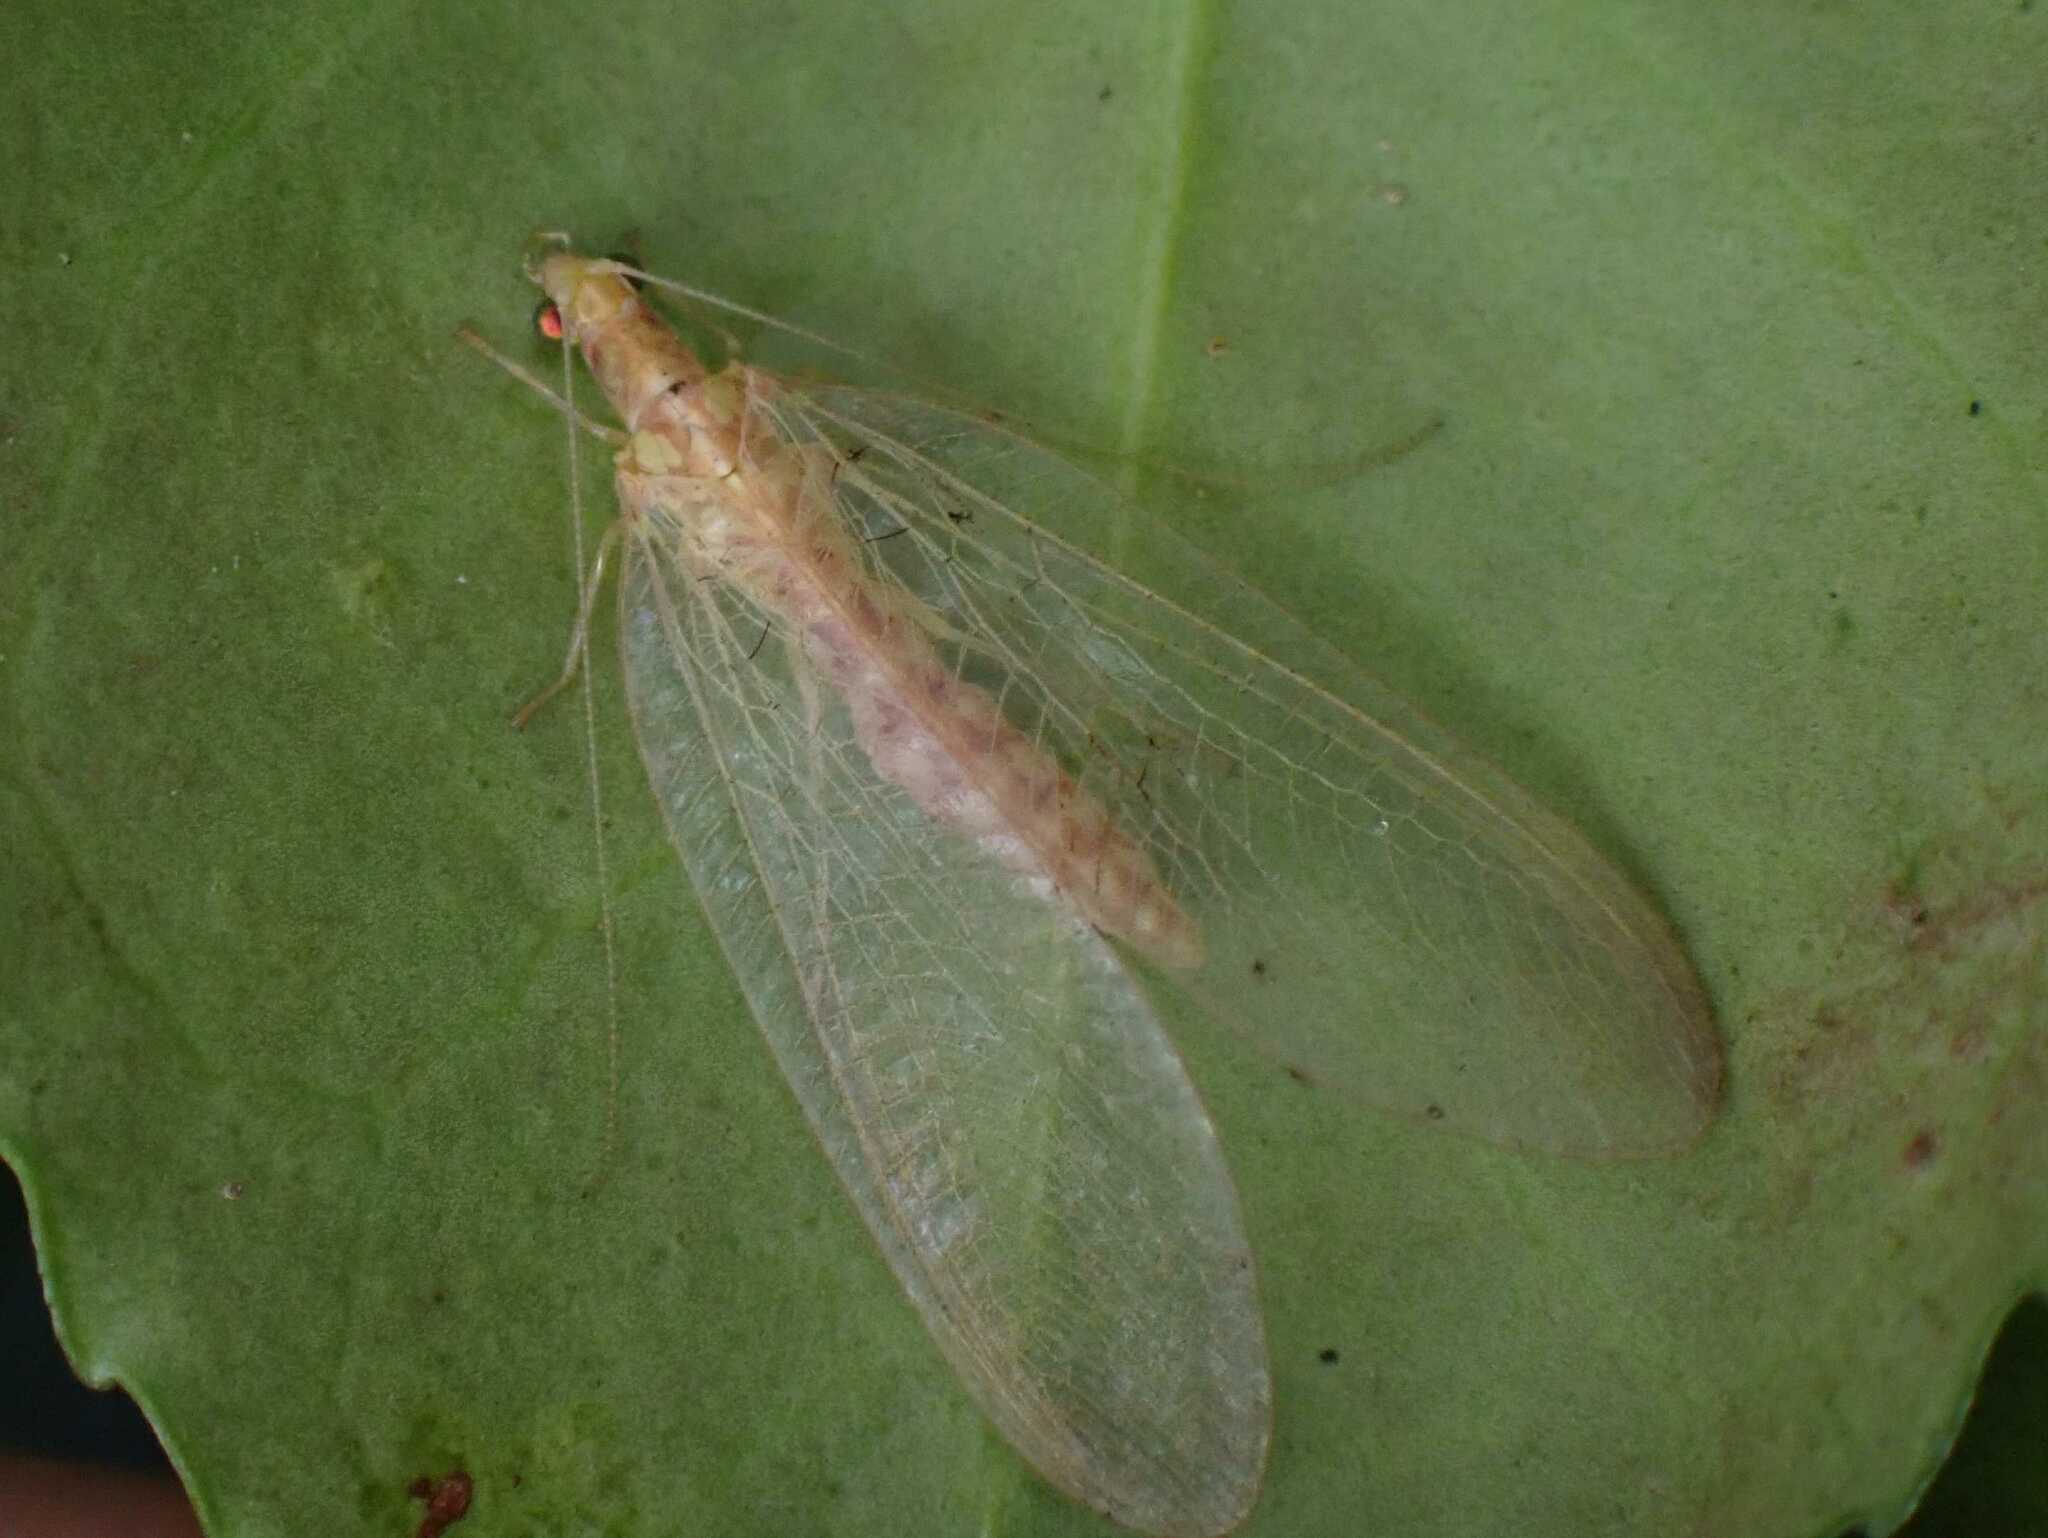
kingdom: Animalia
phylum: Arthropoda
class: Insecta
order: Neuroptera
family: Chrysopidae
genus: Chrysoperla
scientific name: Chrysoperla
